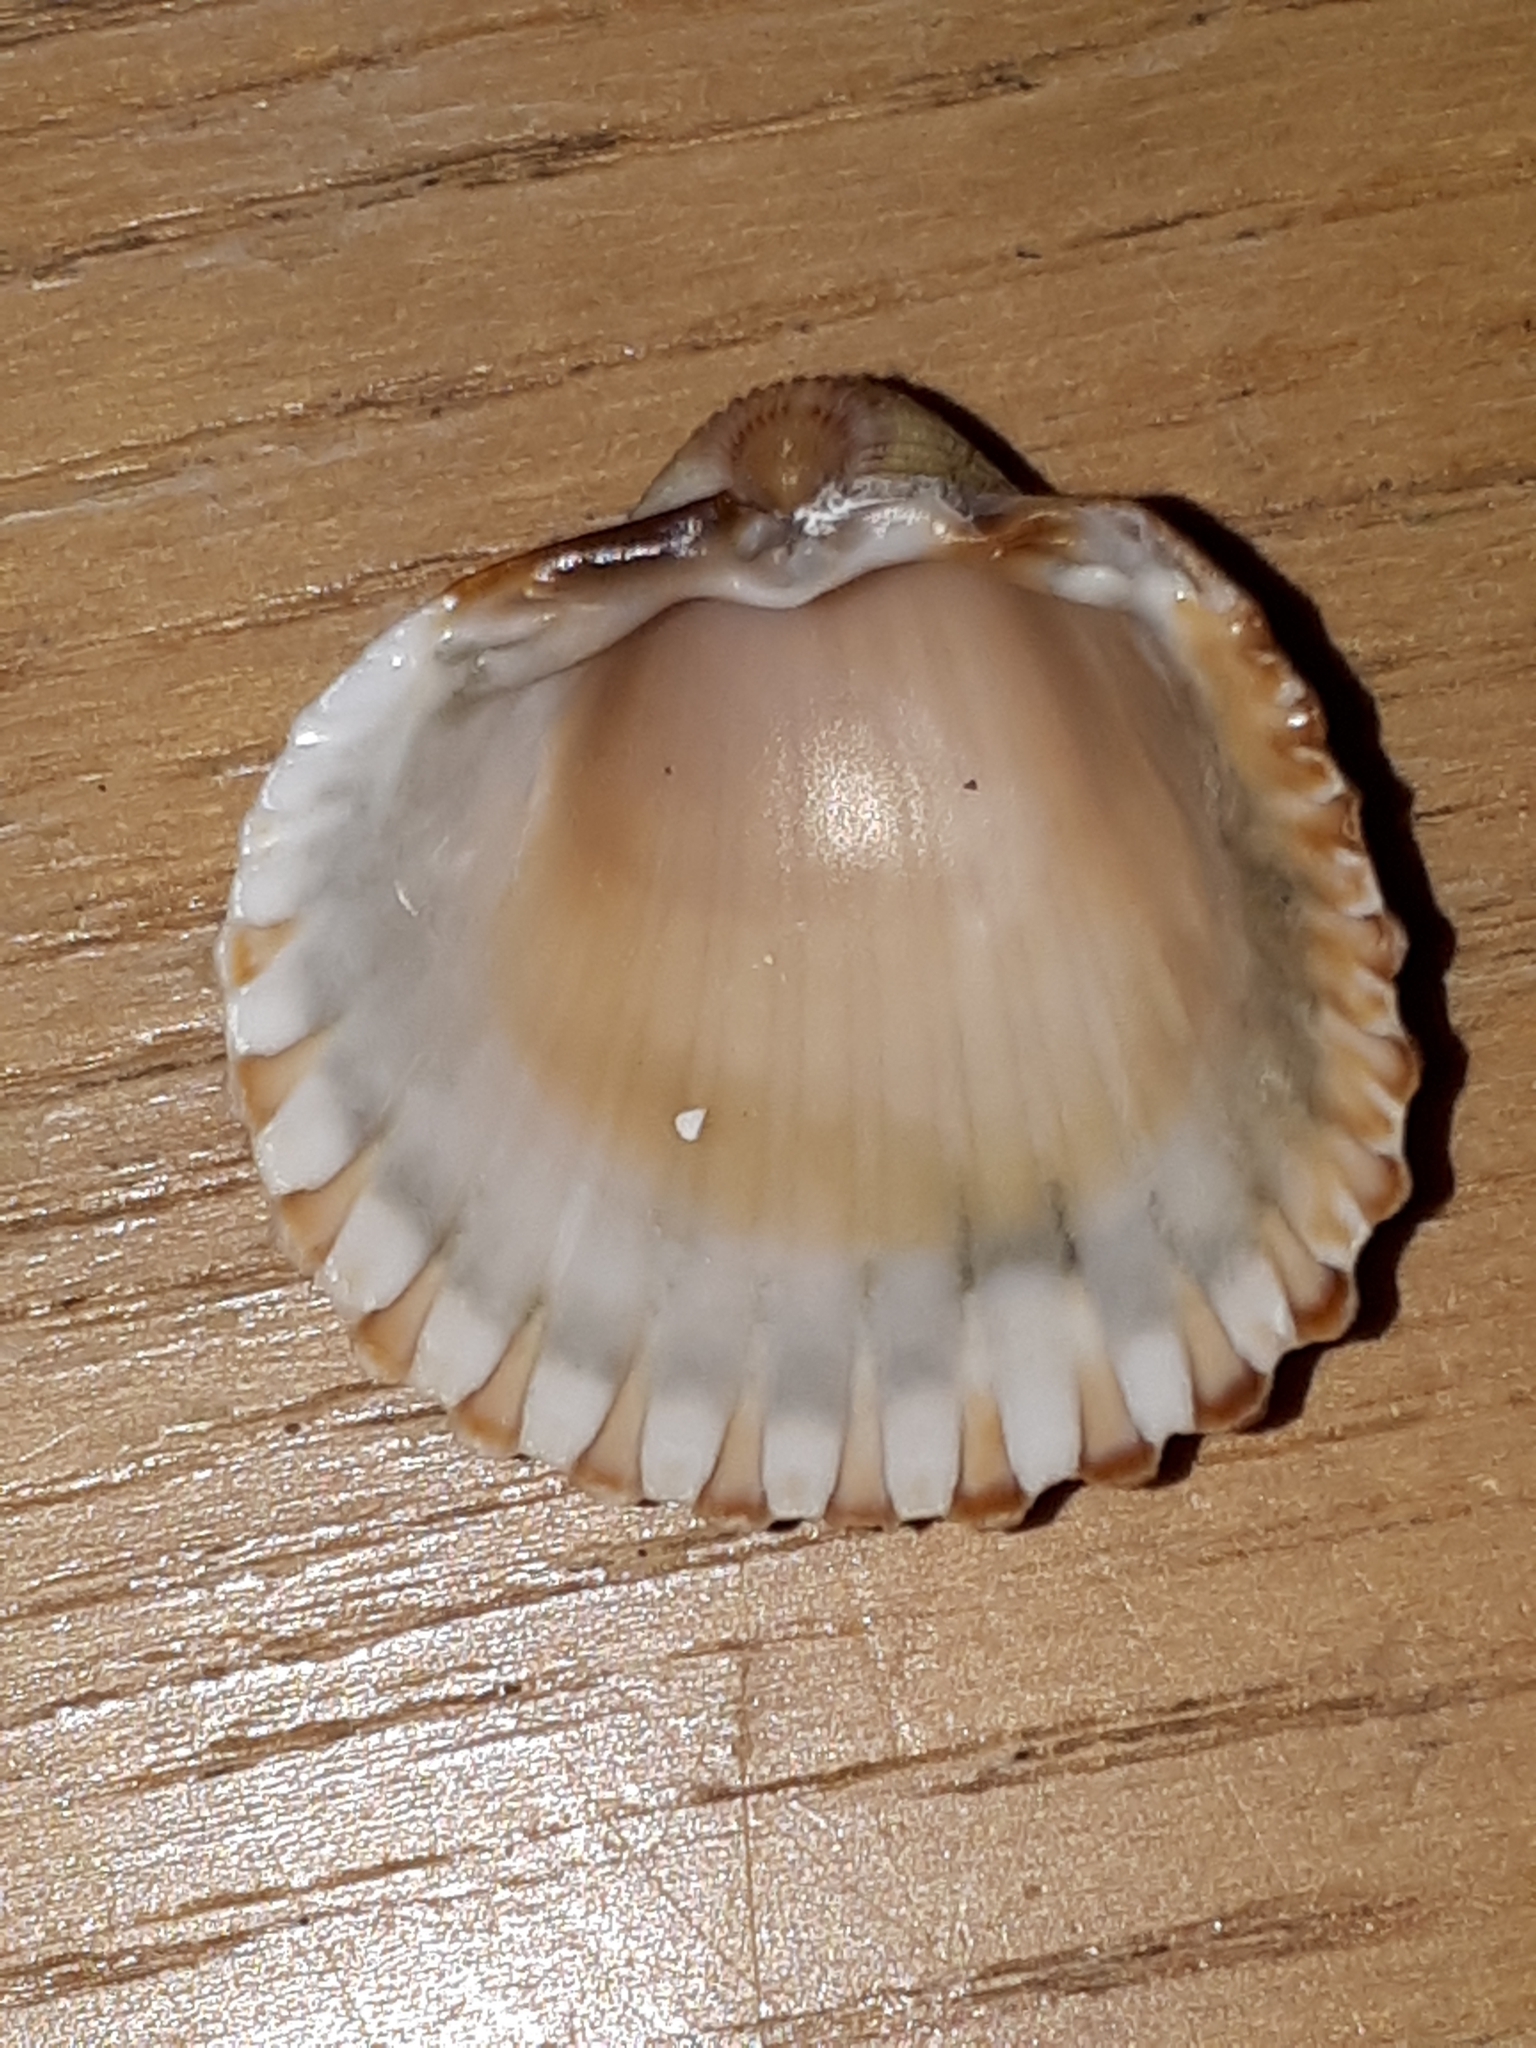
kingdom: Animalia
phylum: Mollusca
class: Bivalvia
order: Cardiida
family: Cardiidae
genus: Acanthocardia
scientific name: Acanthocardia tuberculata
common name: Rough cockle
